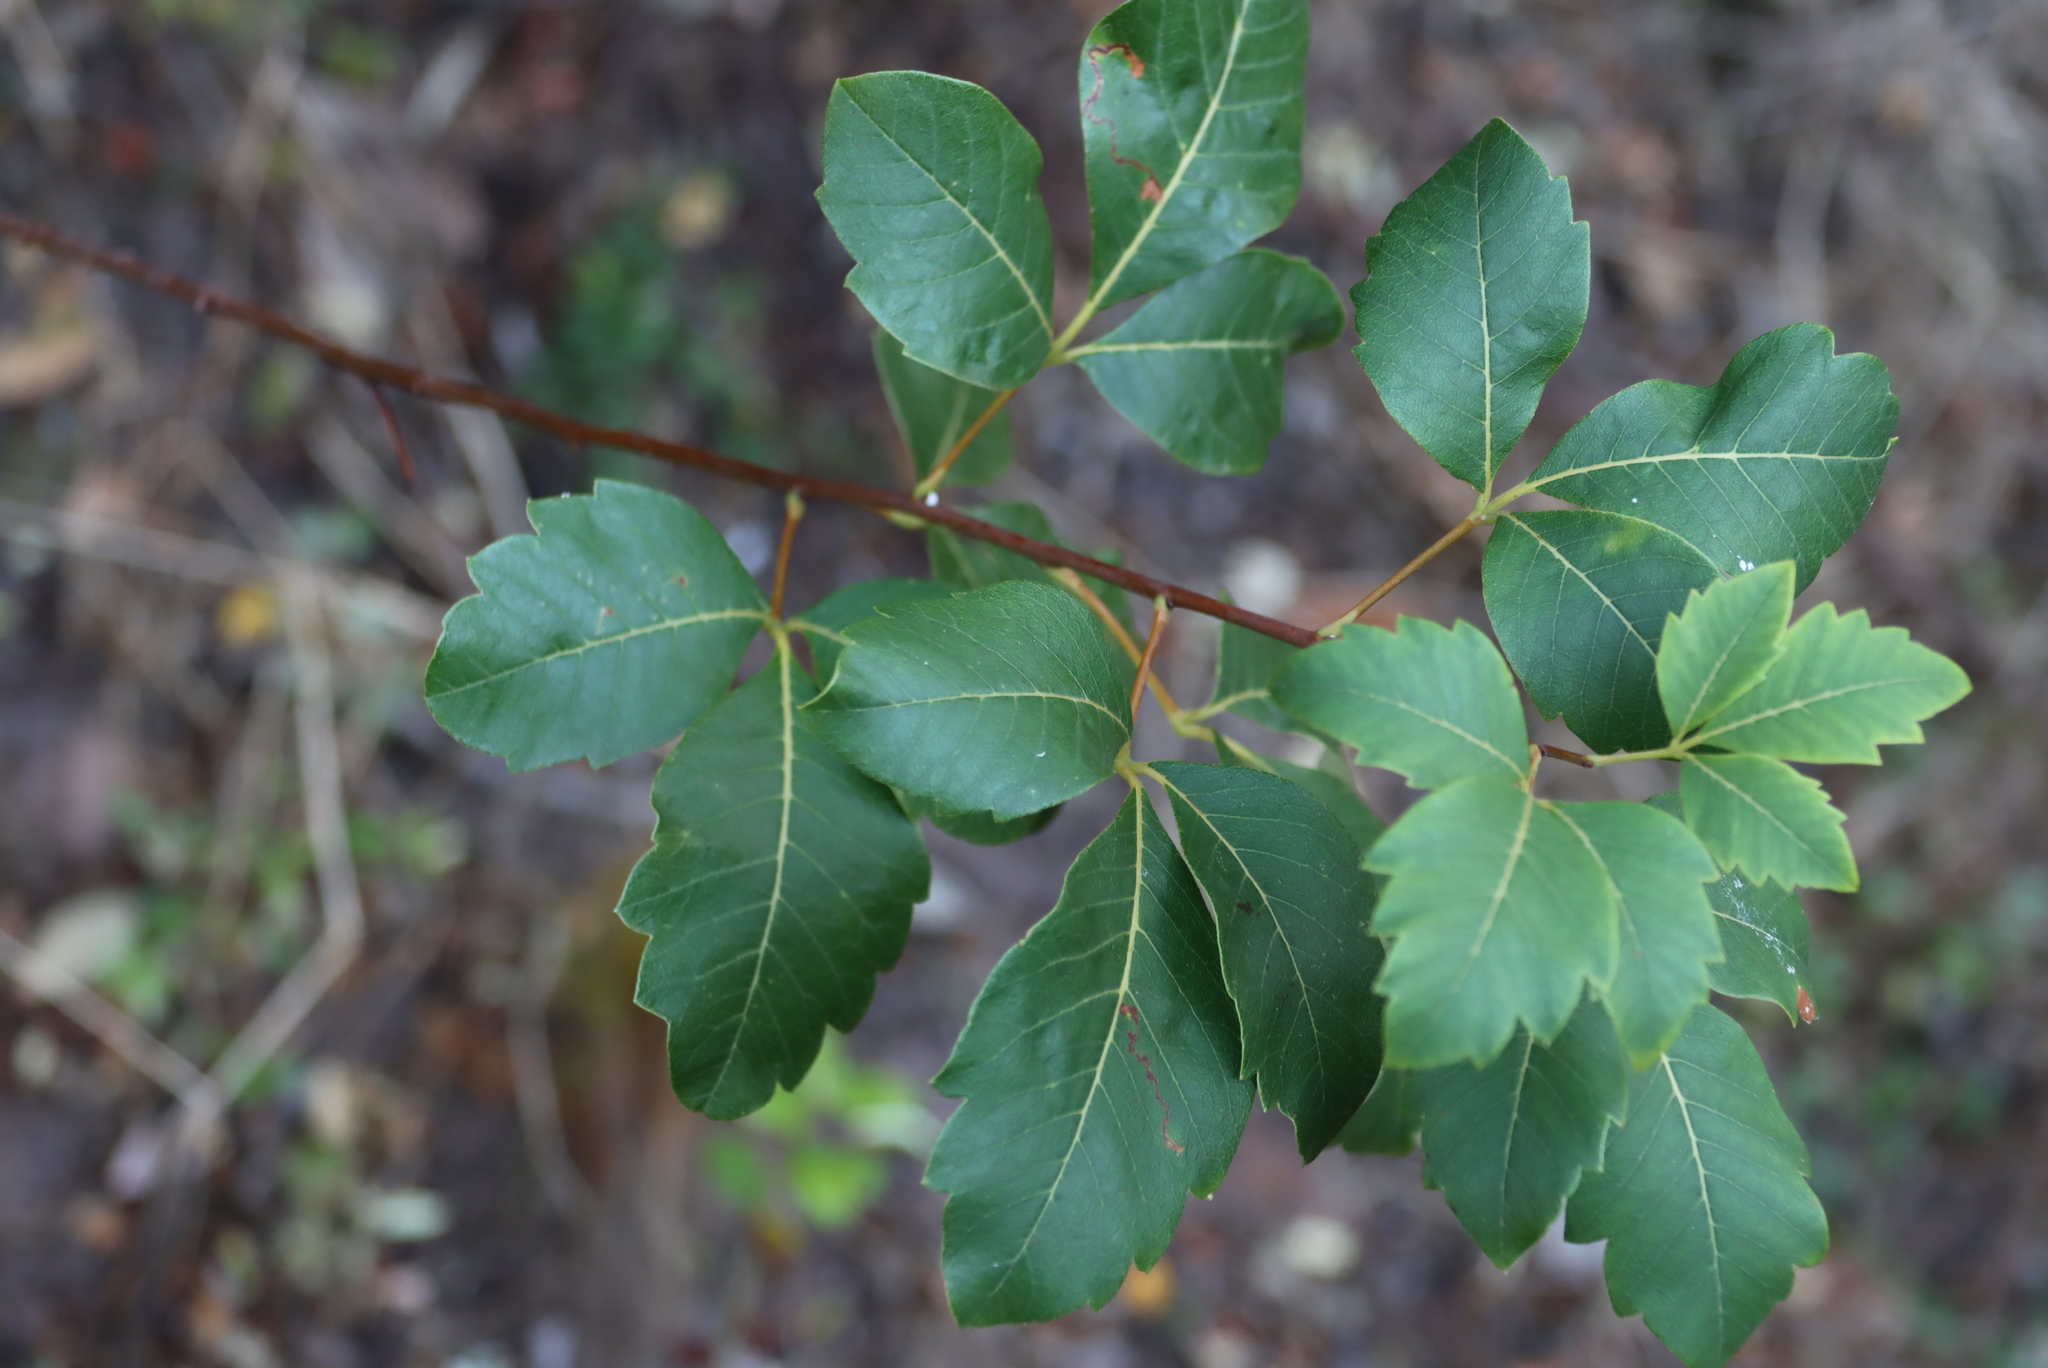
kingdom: Plantae
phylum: Tracheophyta
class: Magnoliopsida
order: Sapindales
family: Anacardiaceae
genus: Searsia
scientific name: Searsia tomentosa
